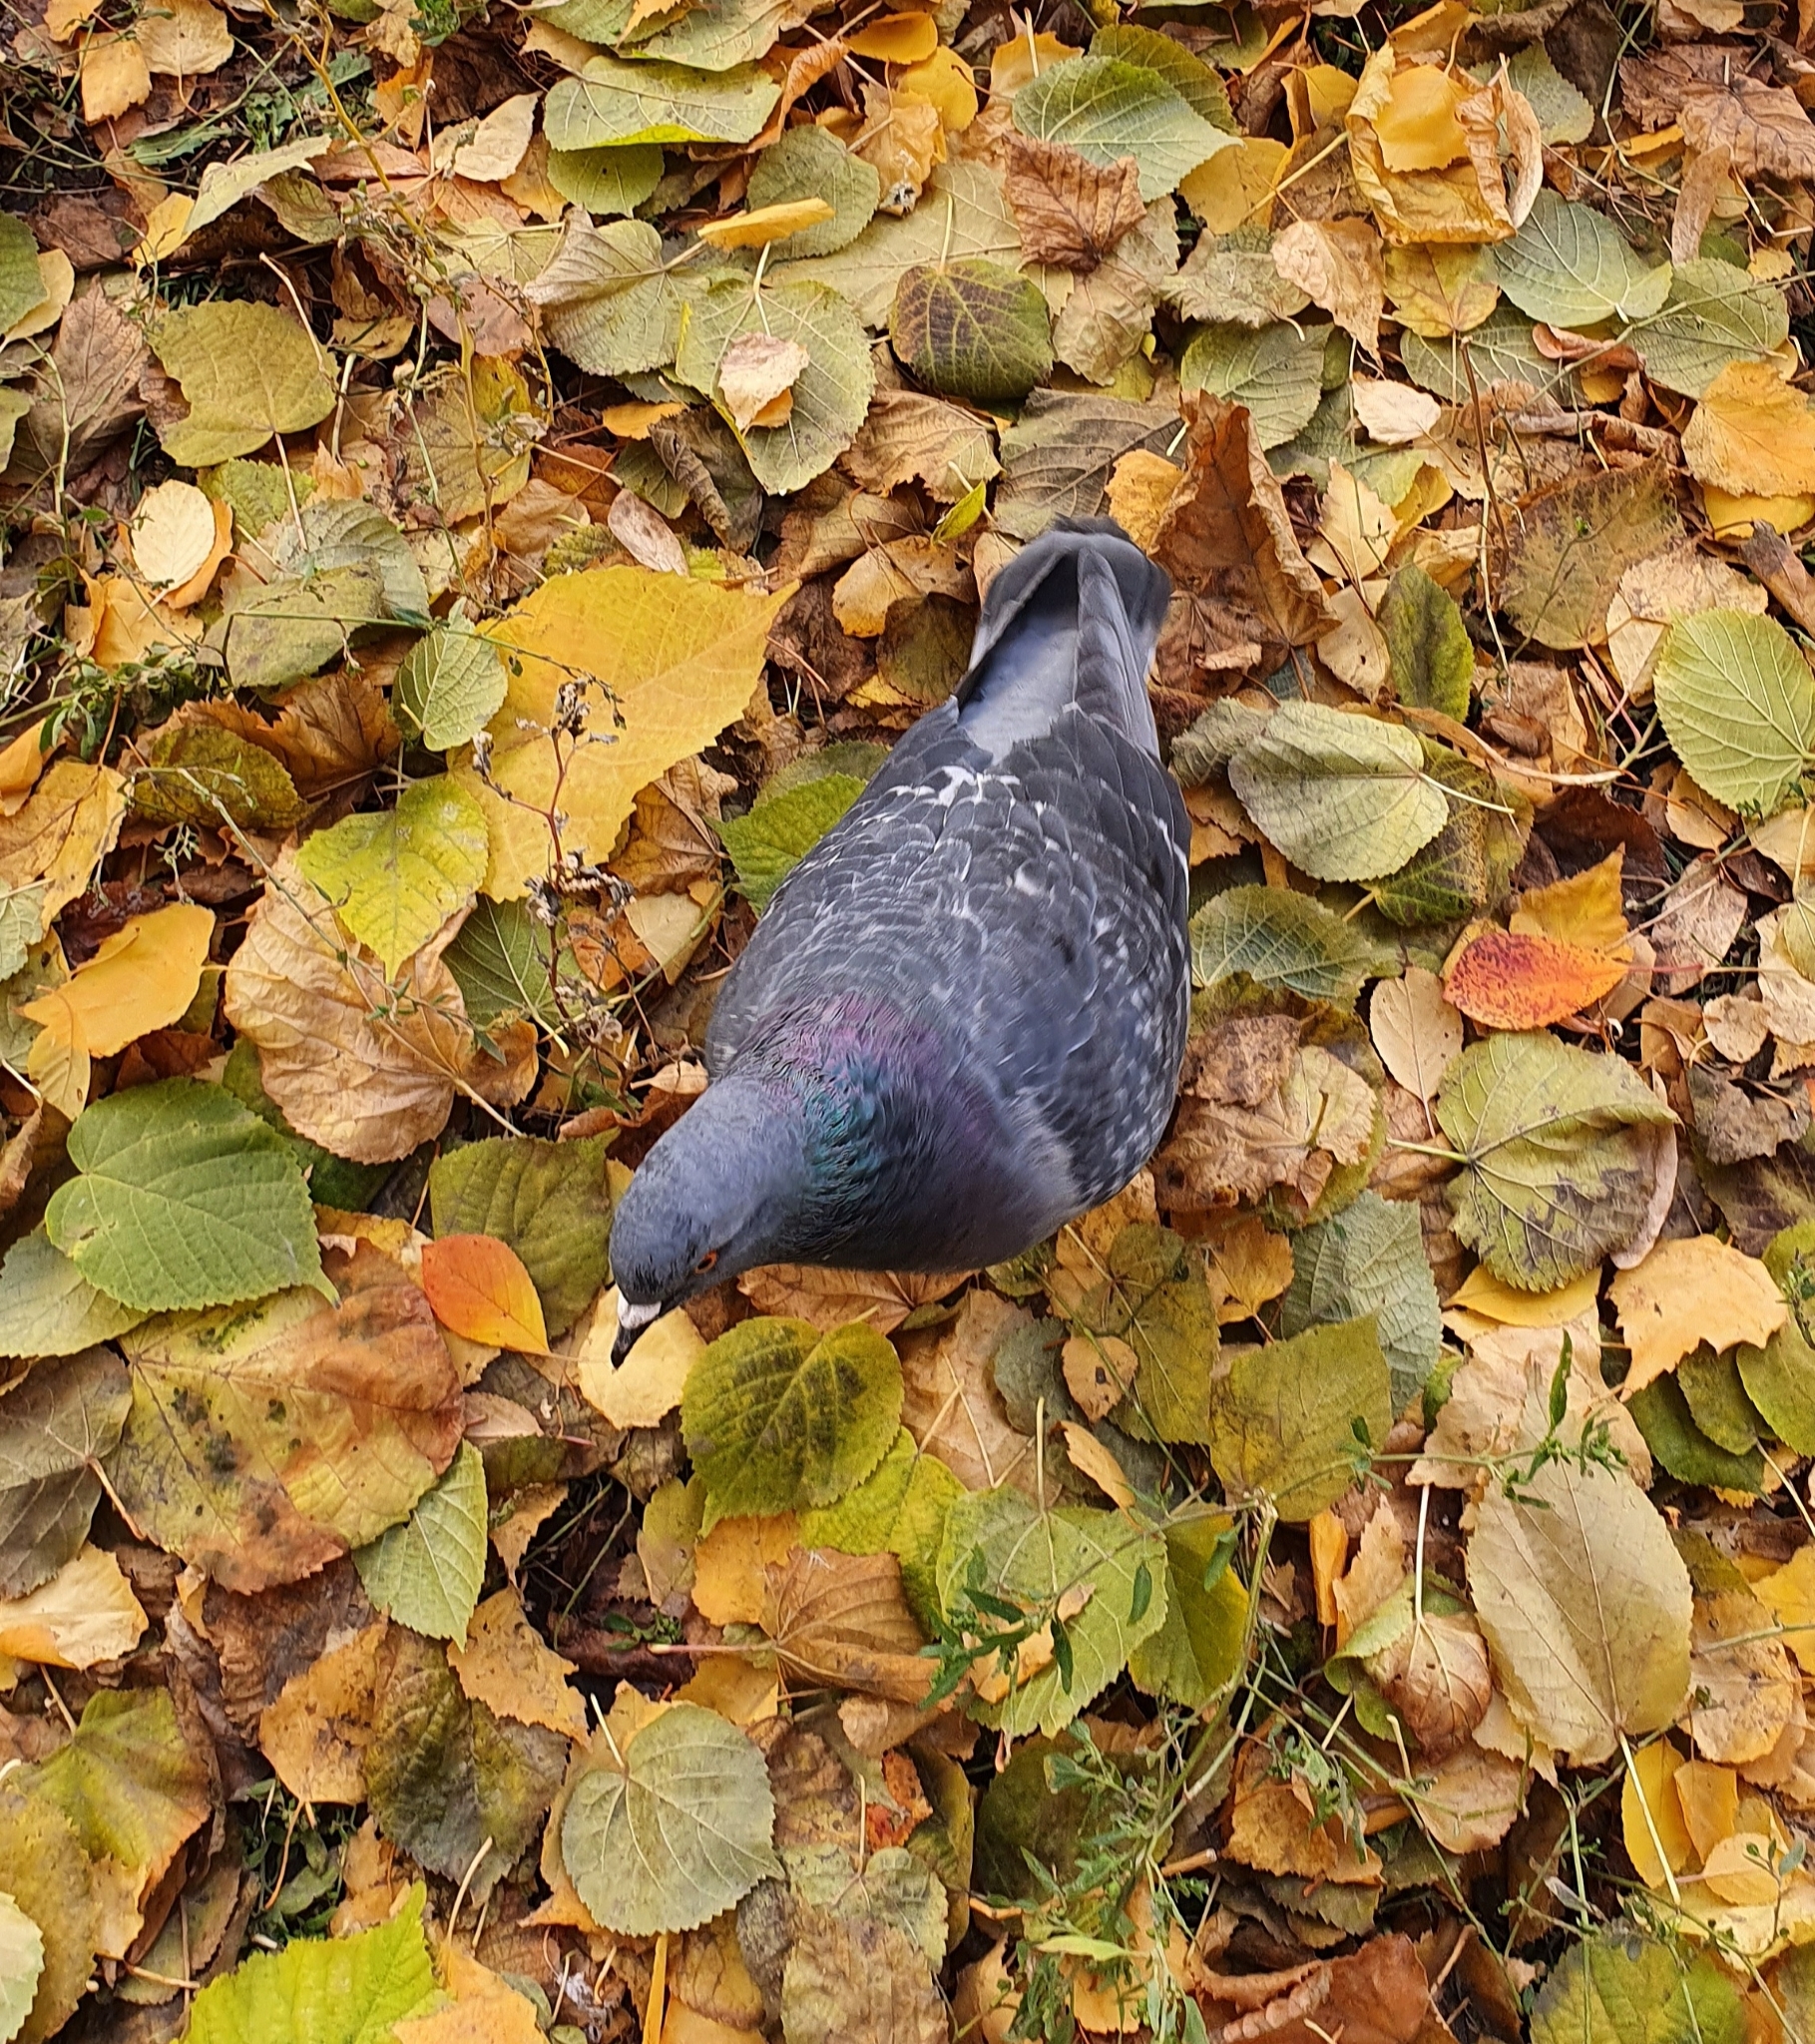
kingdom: Animalia
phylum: Chordata
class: Aves
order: Columbiformes
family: Columbidae
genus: Columba
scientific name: Columba livia
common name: Rock pigeon
